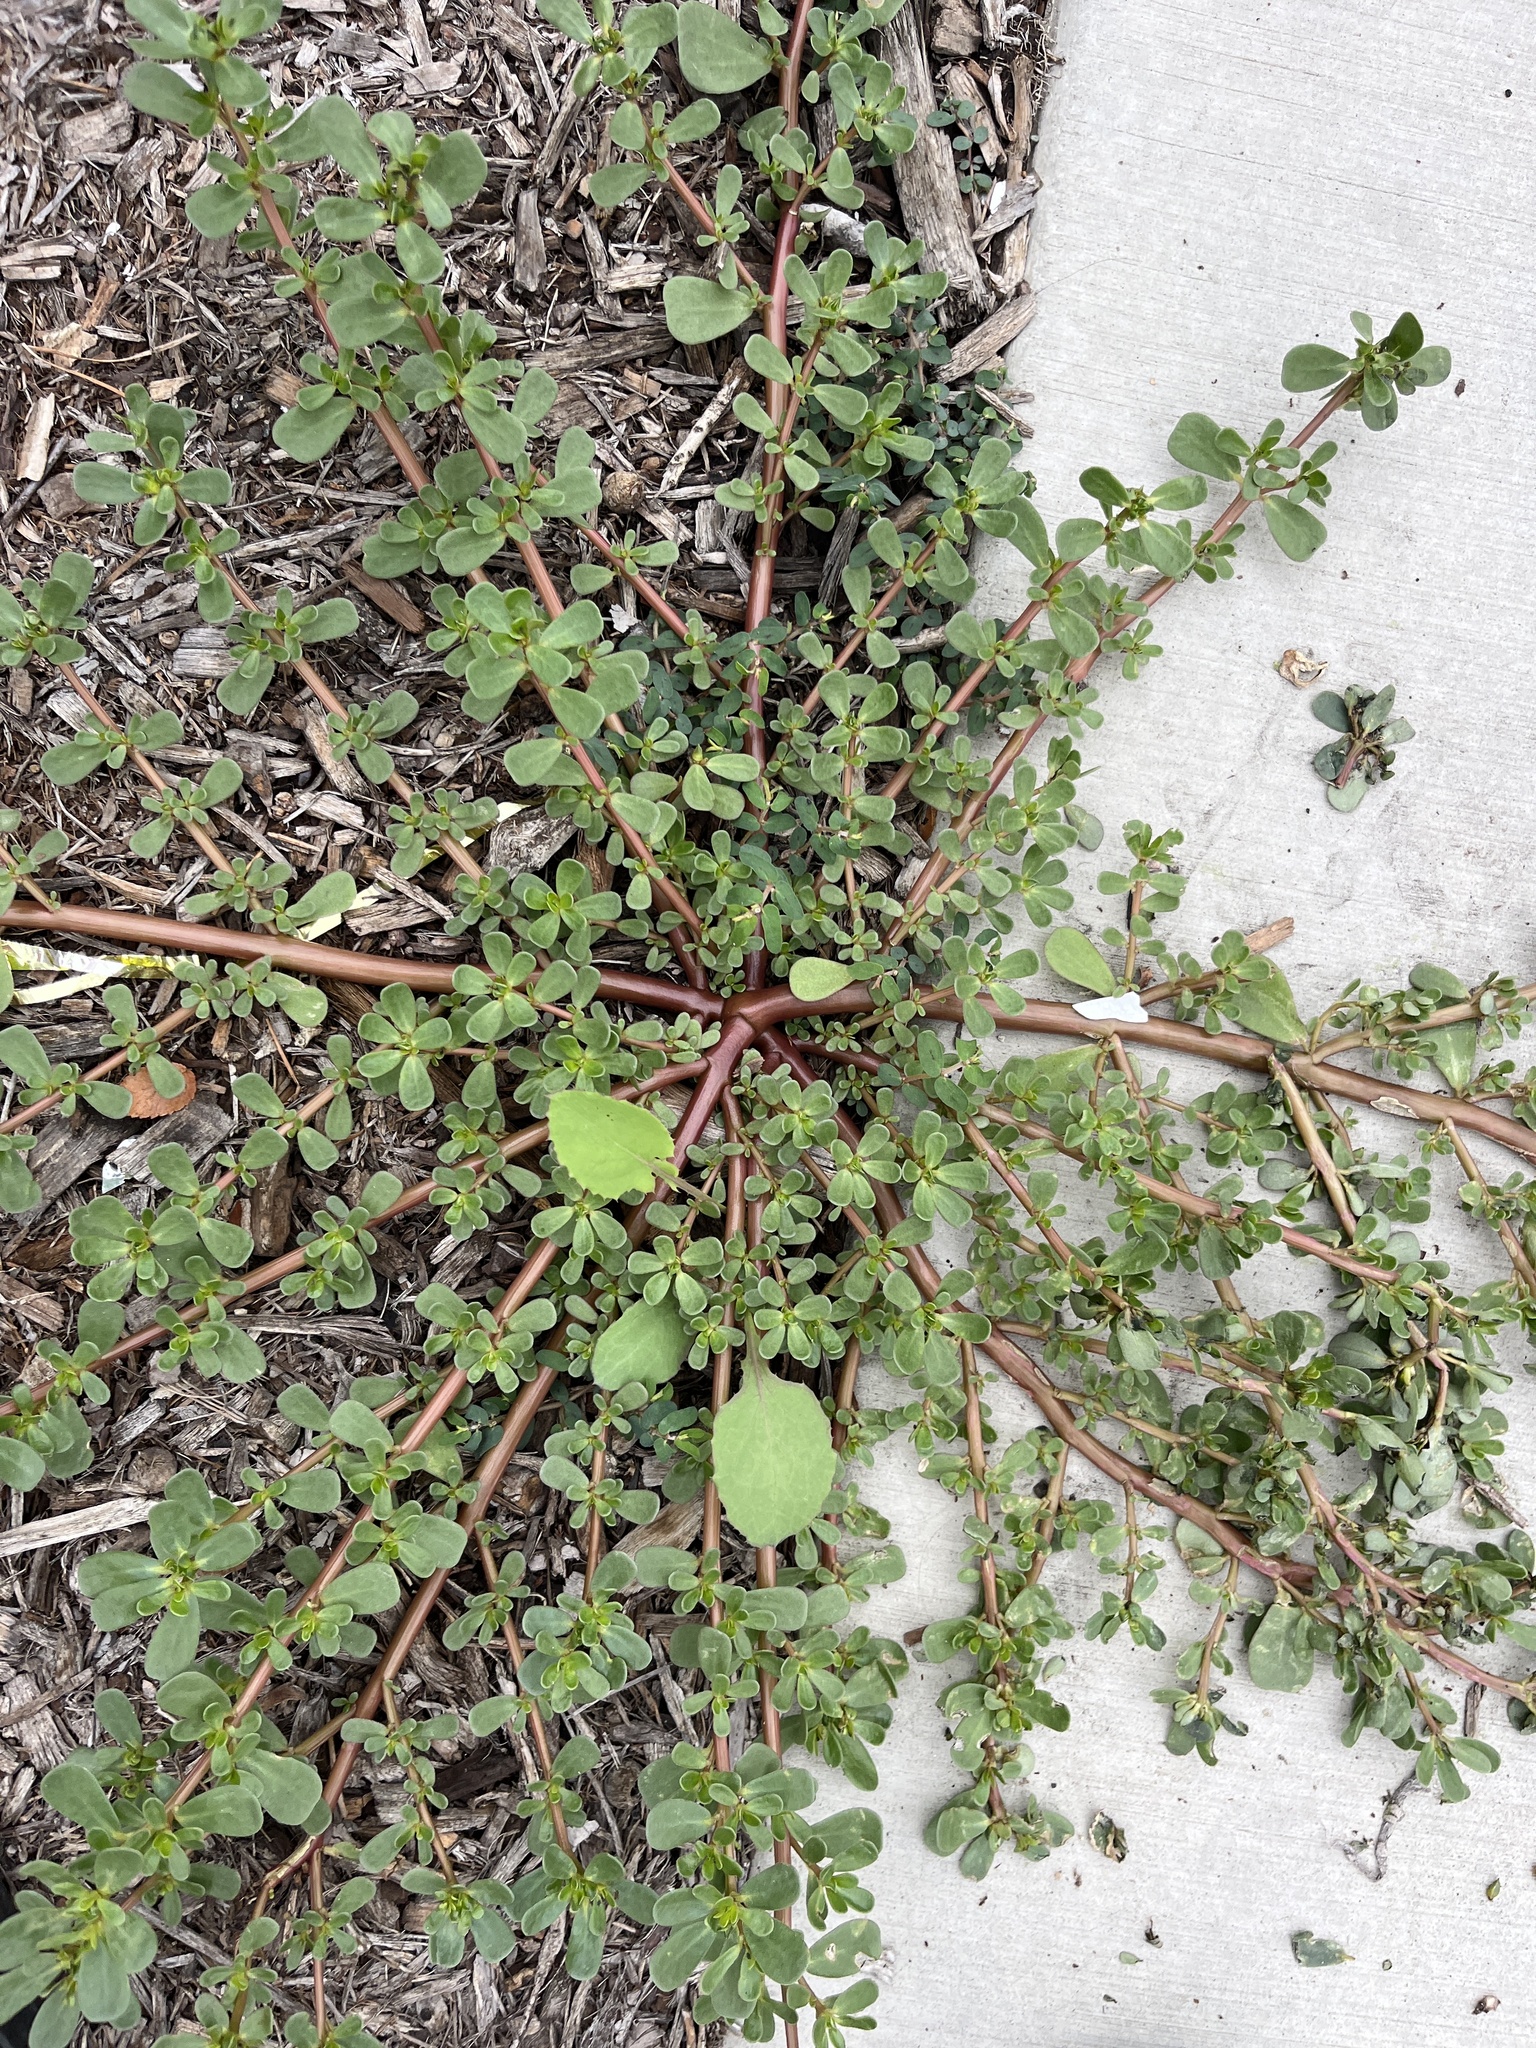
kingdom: Plantae
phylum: Tracheophyta
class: Magnoliopsida
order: Caryophyllales
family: Portulacaceae
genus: Portulaca
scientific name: Portulaca oleracea
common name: Common purslane
